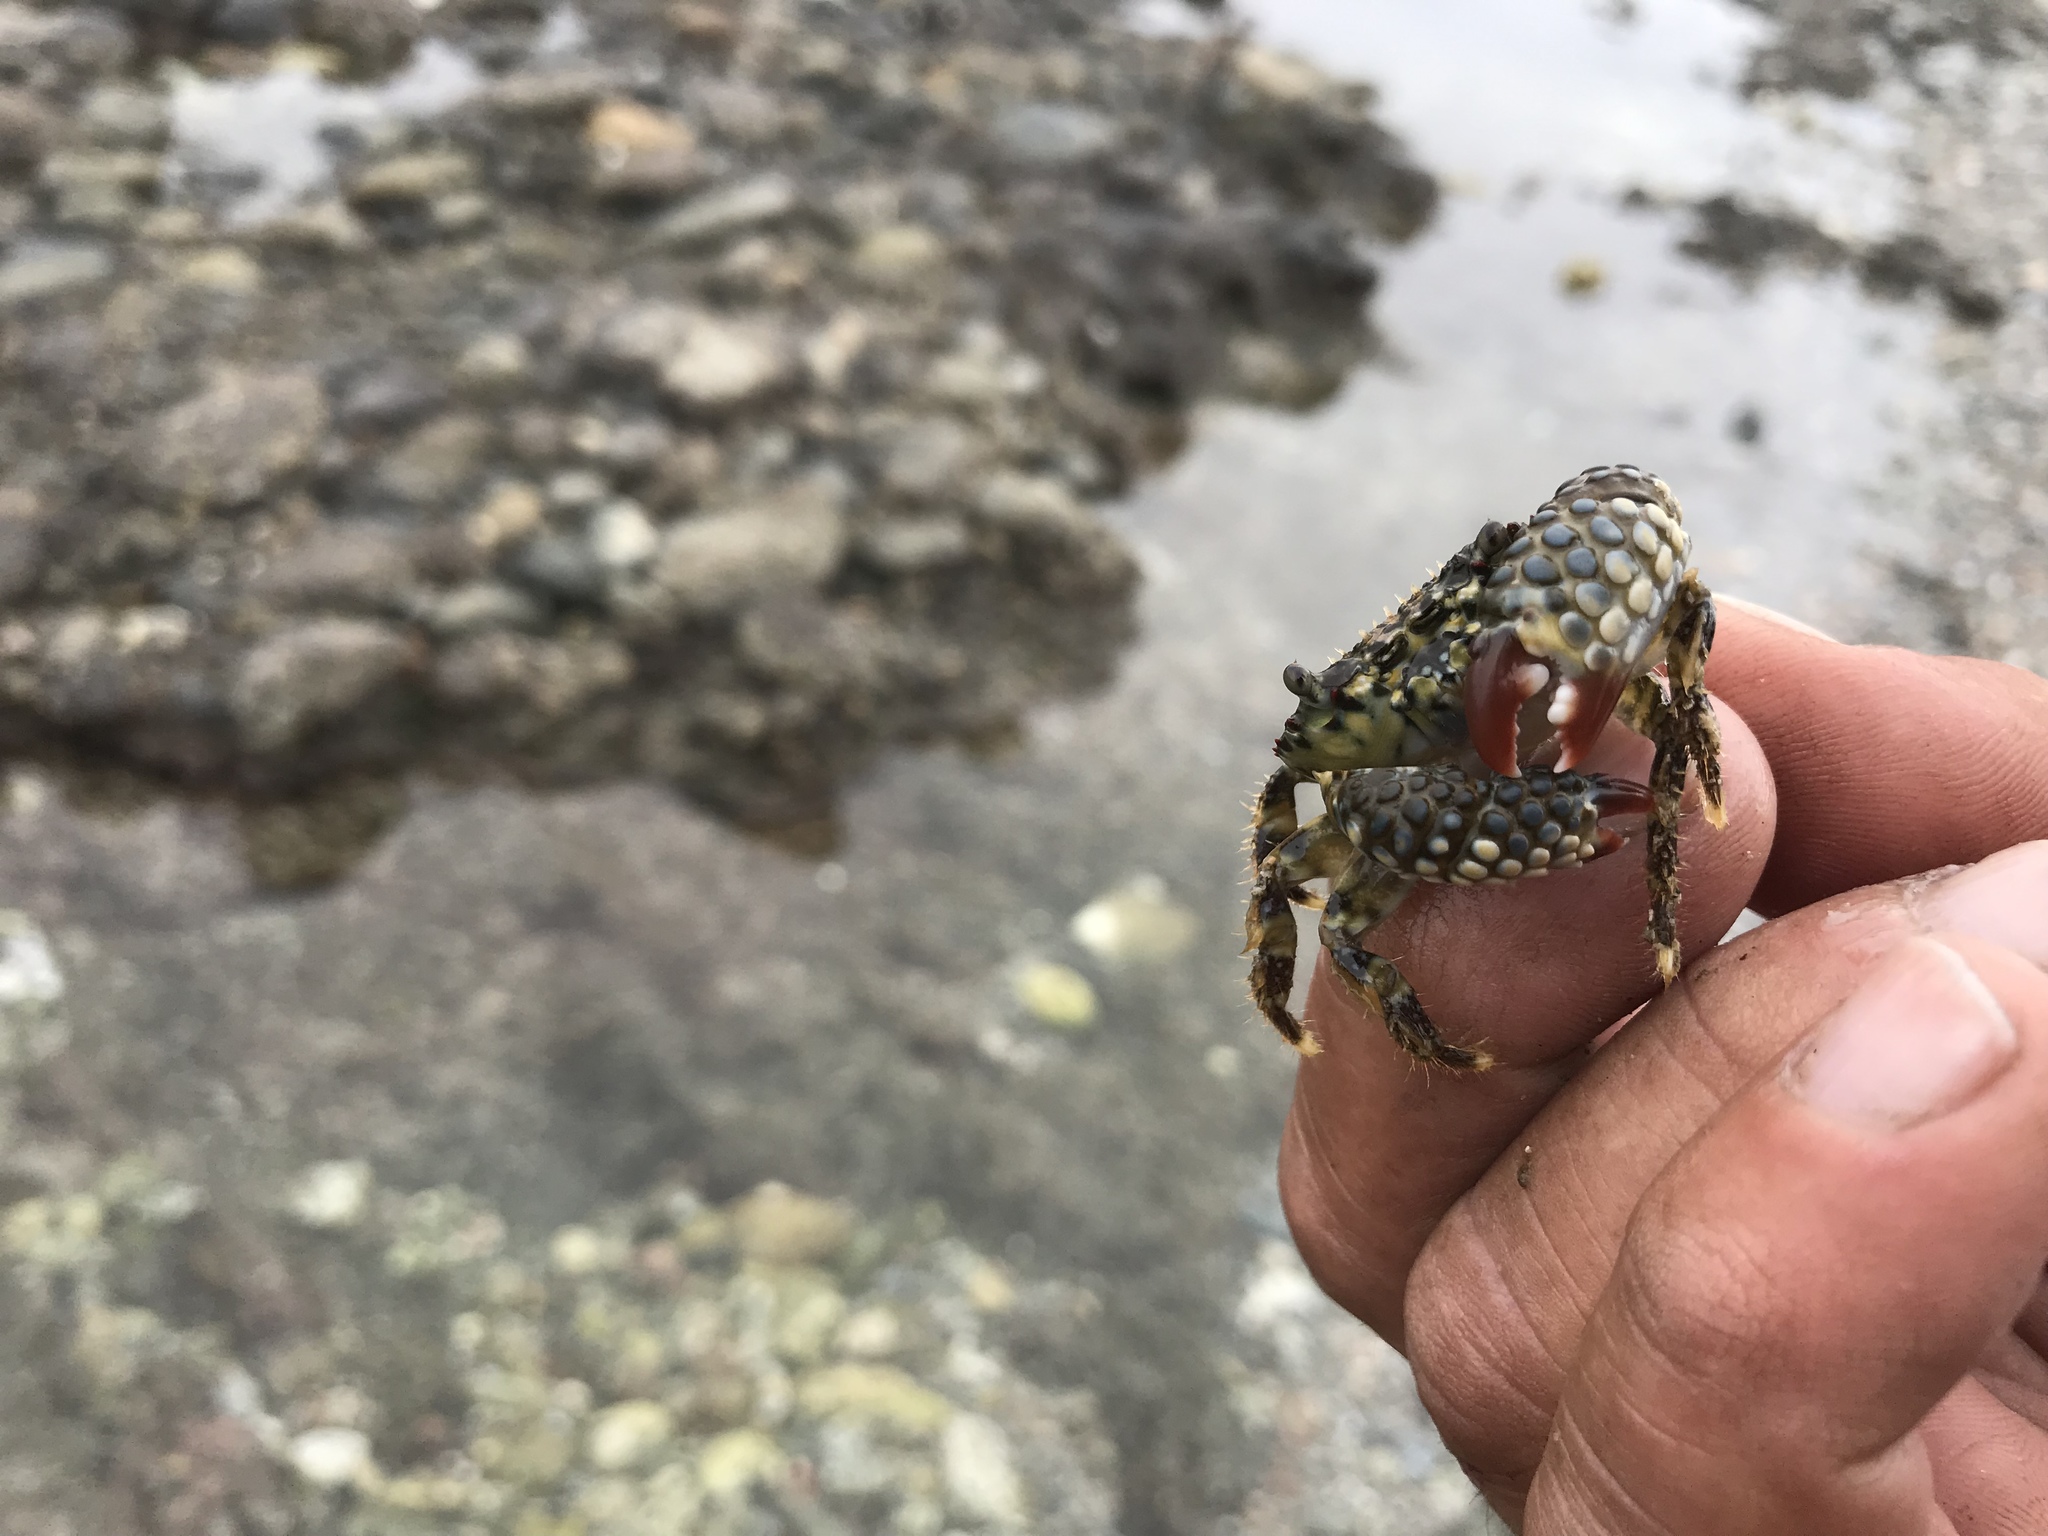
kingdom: Animalia
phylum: Arthropoda
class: Malacostraca
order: Decapoda
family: Eriphiidae
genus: Eriphia
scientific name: Eriphia squamata
